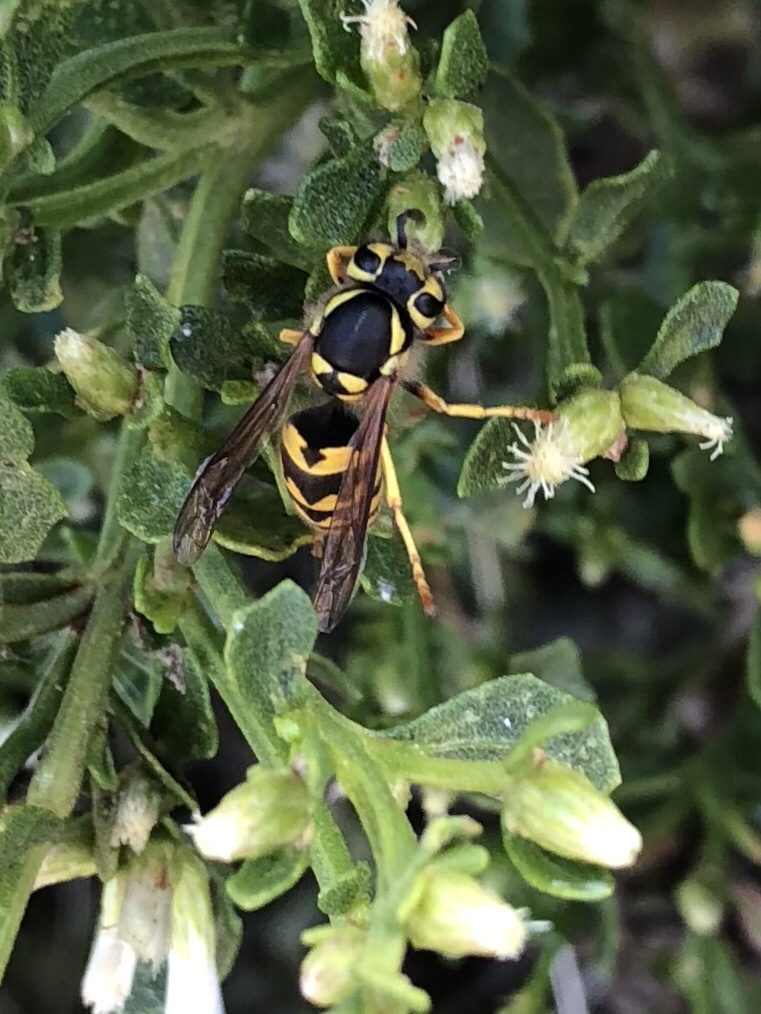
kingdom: Animalia
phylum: Arthropoda
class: Insecta
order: Hymenoptera
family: Vespidae
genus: Vespula
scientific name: Vespula pensylvanica
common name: Western yellowjacket
